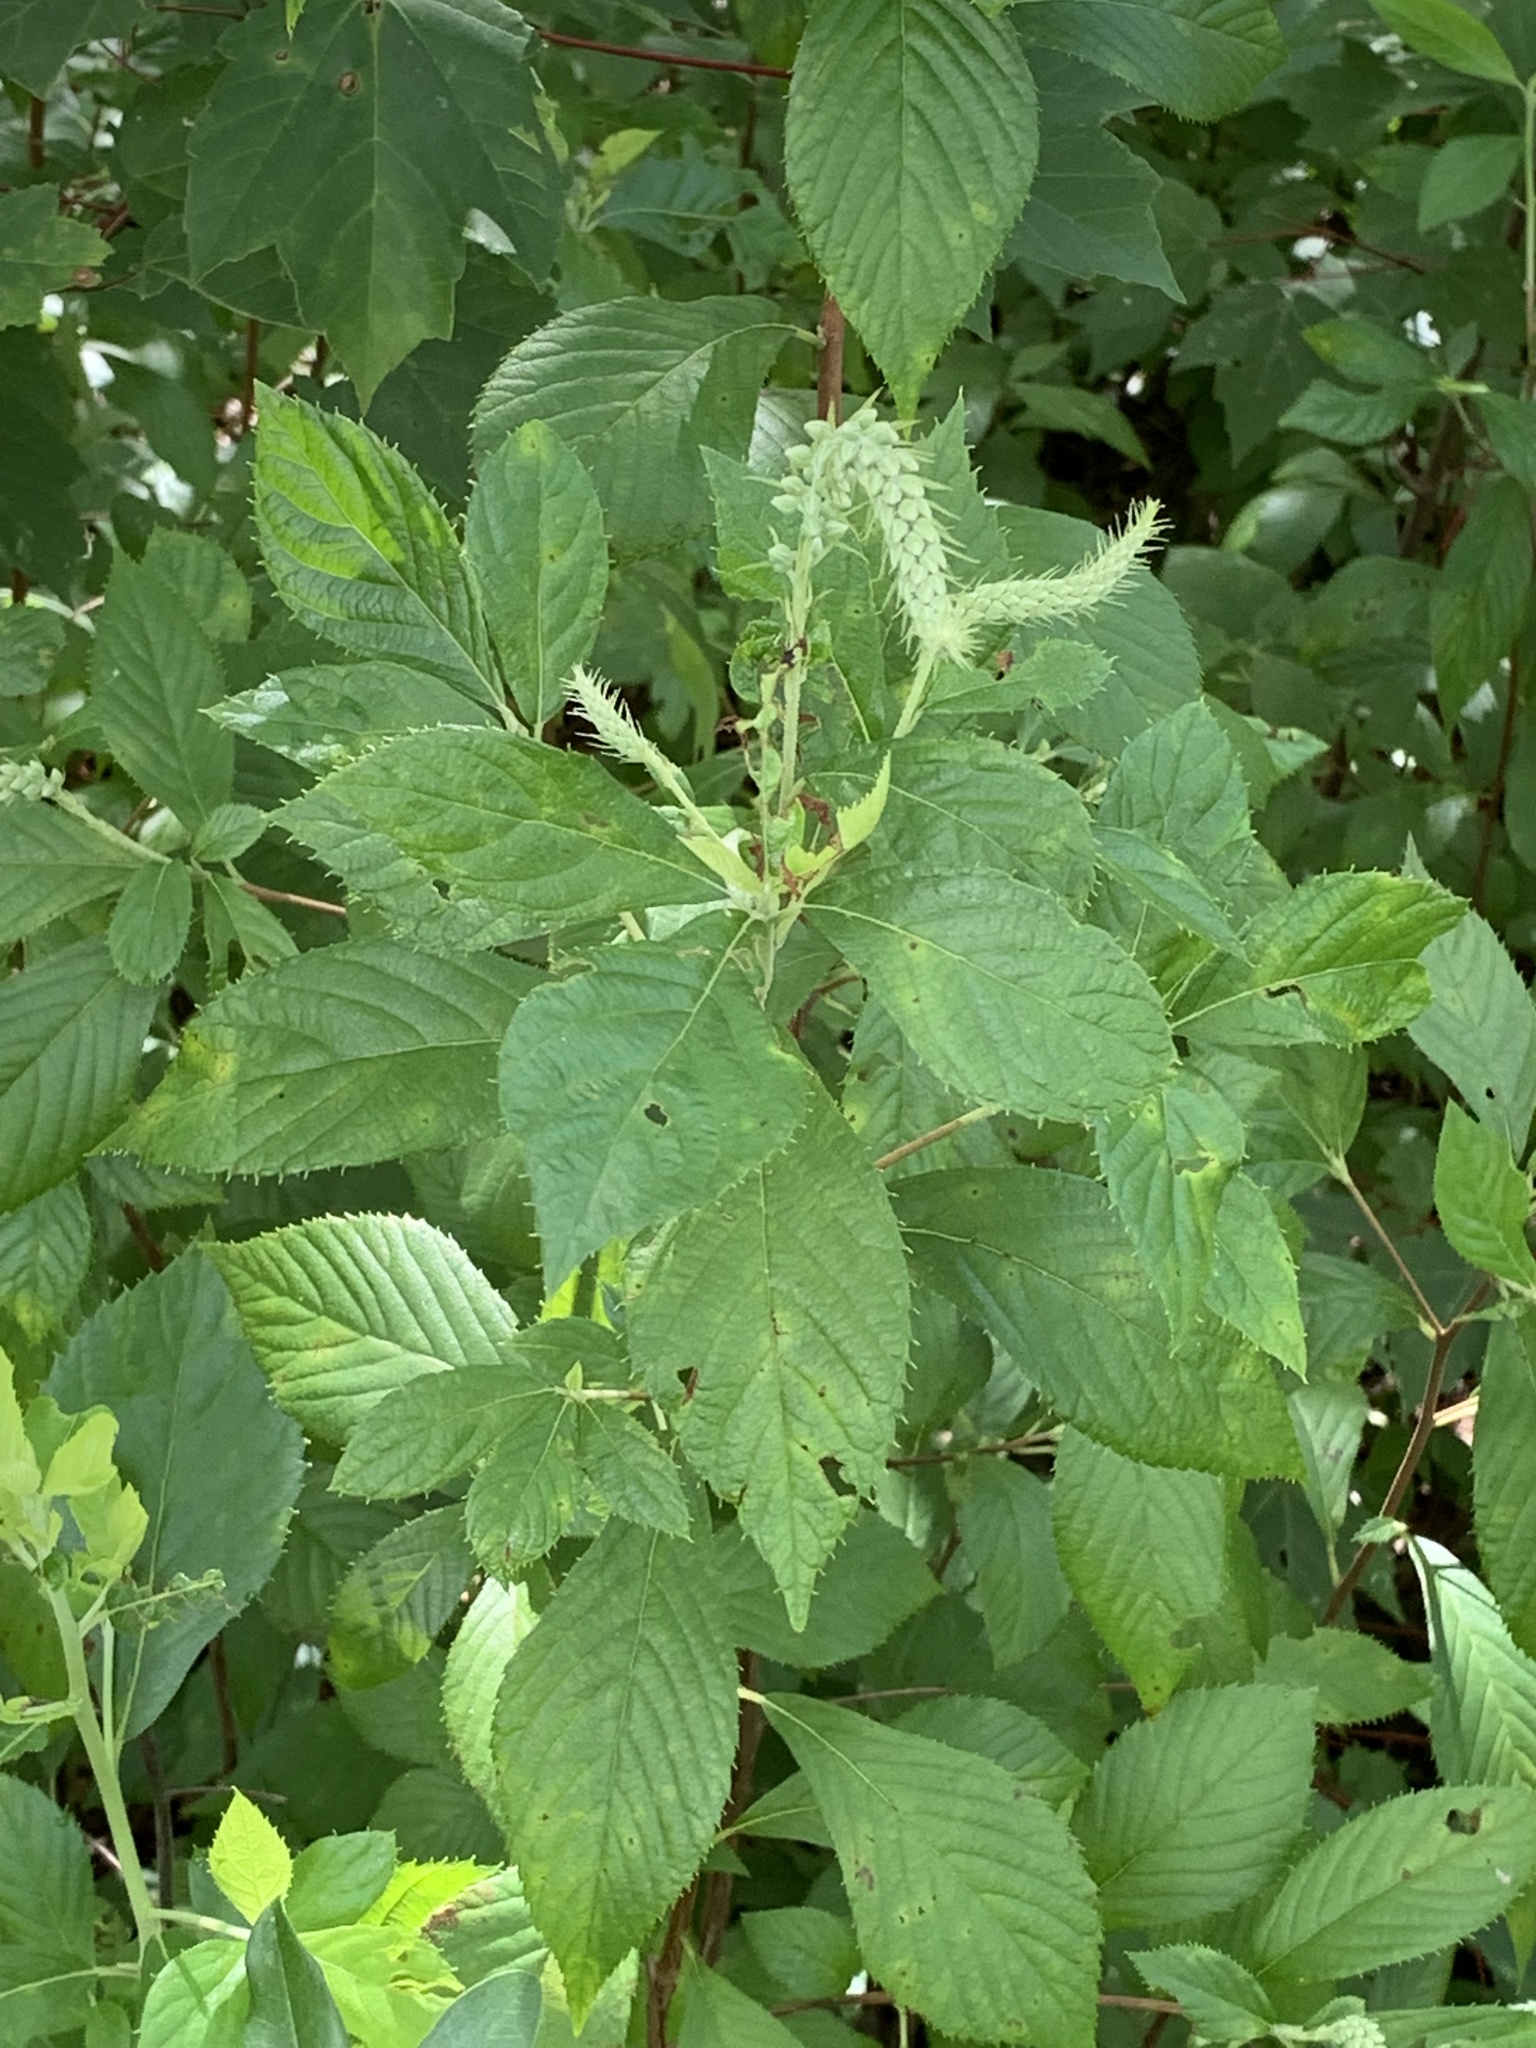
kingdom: Plantae
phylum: Tracheophyta
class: Magnoliopsida
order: Ericales
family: Clethraceae
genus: Clethra
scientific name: Clethra alnifolia
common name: Sweet pepperbush
